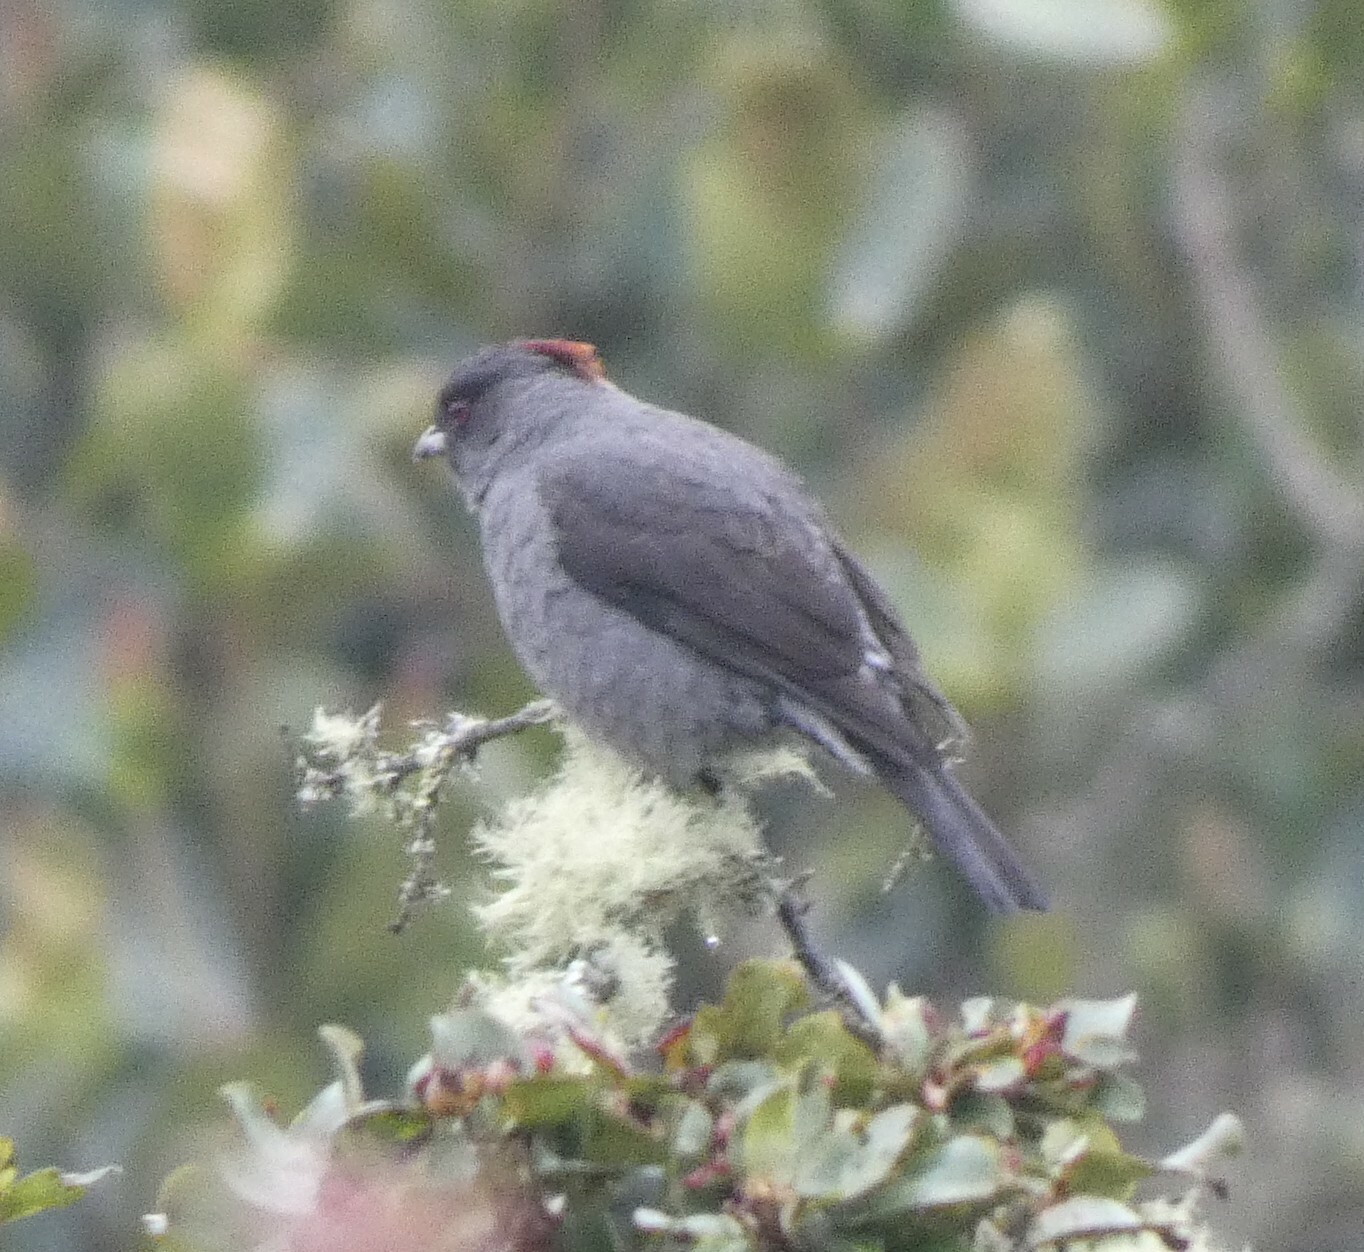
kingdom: Animalia
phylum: Chordata
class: Aves
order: Passeriformes
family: Cotingidae
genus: Ampelion
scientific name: Ampelion rubrocristatus
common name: Red-crested cotinga
